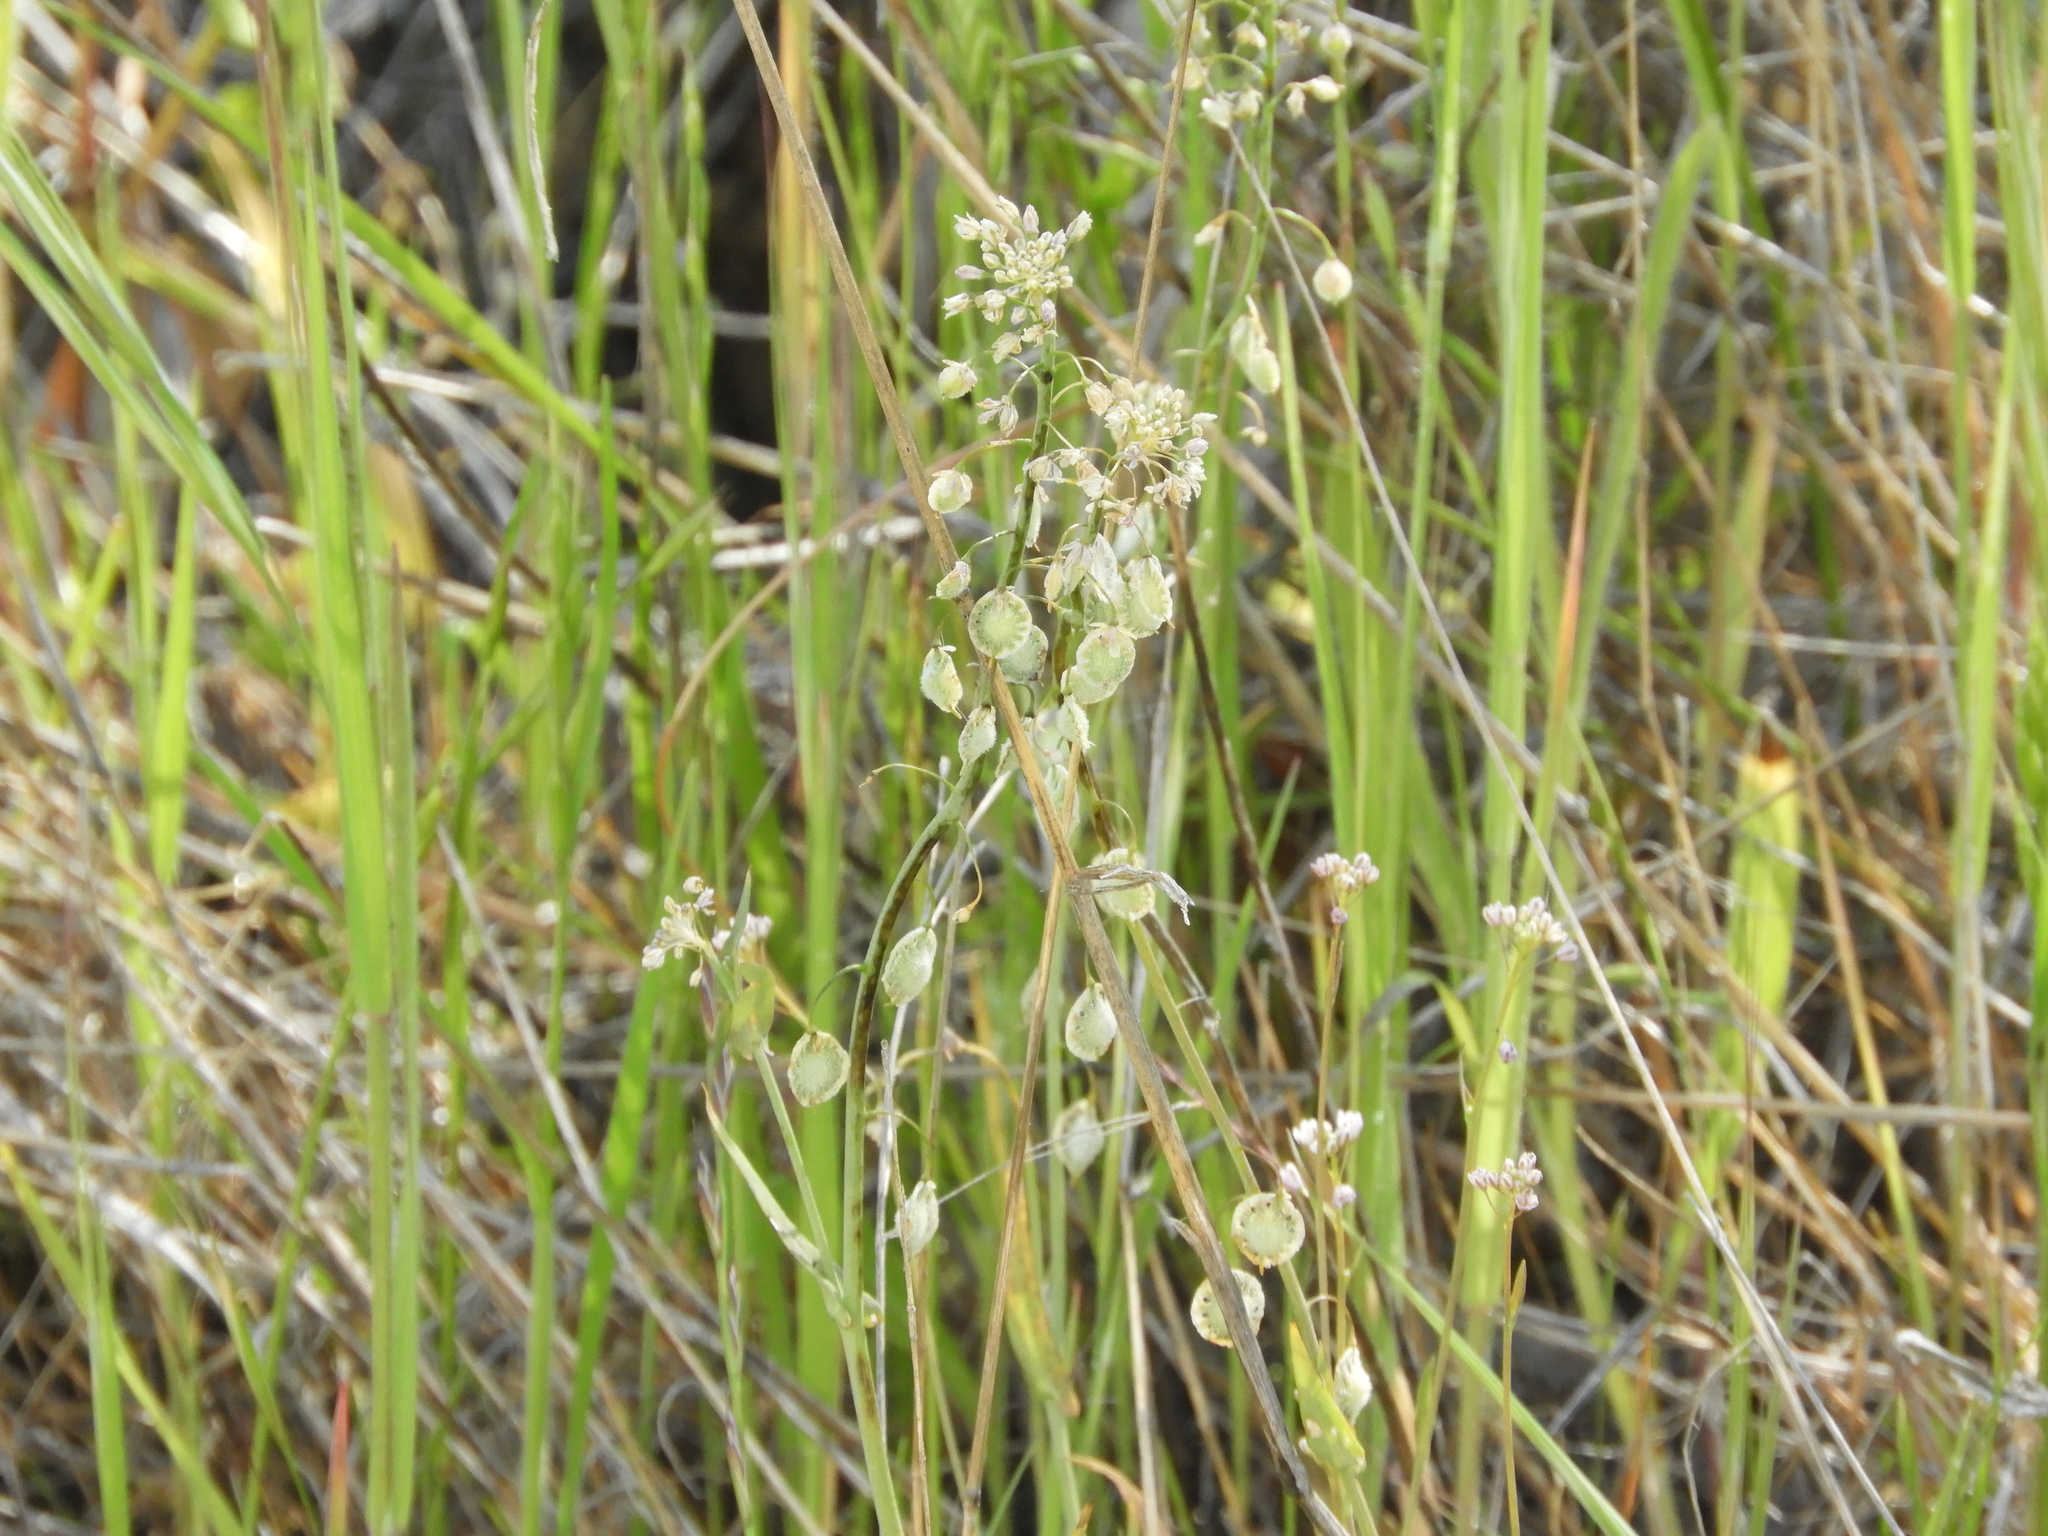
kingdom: Plantae
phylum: Tracheophyta
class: Magnoliopsida
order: Brassicales
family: Brassicaceae
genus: Thysanocarpus
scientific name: Thysanocarpus curvipes
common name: Sand fringepod
